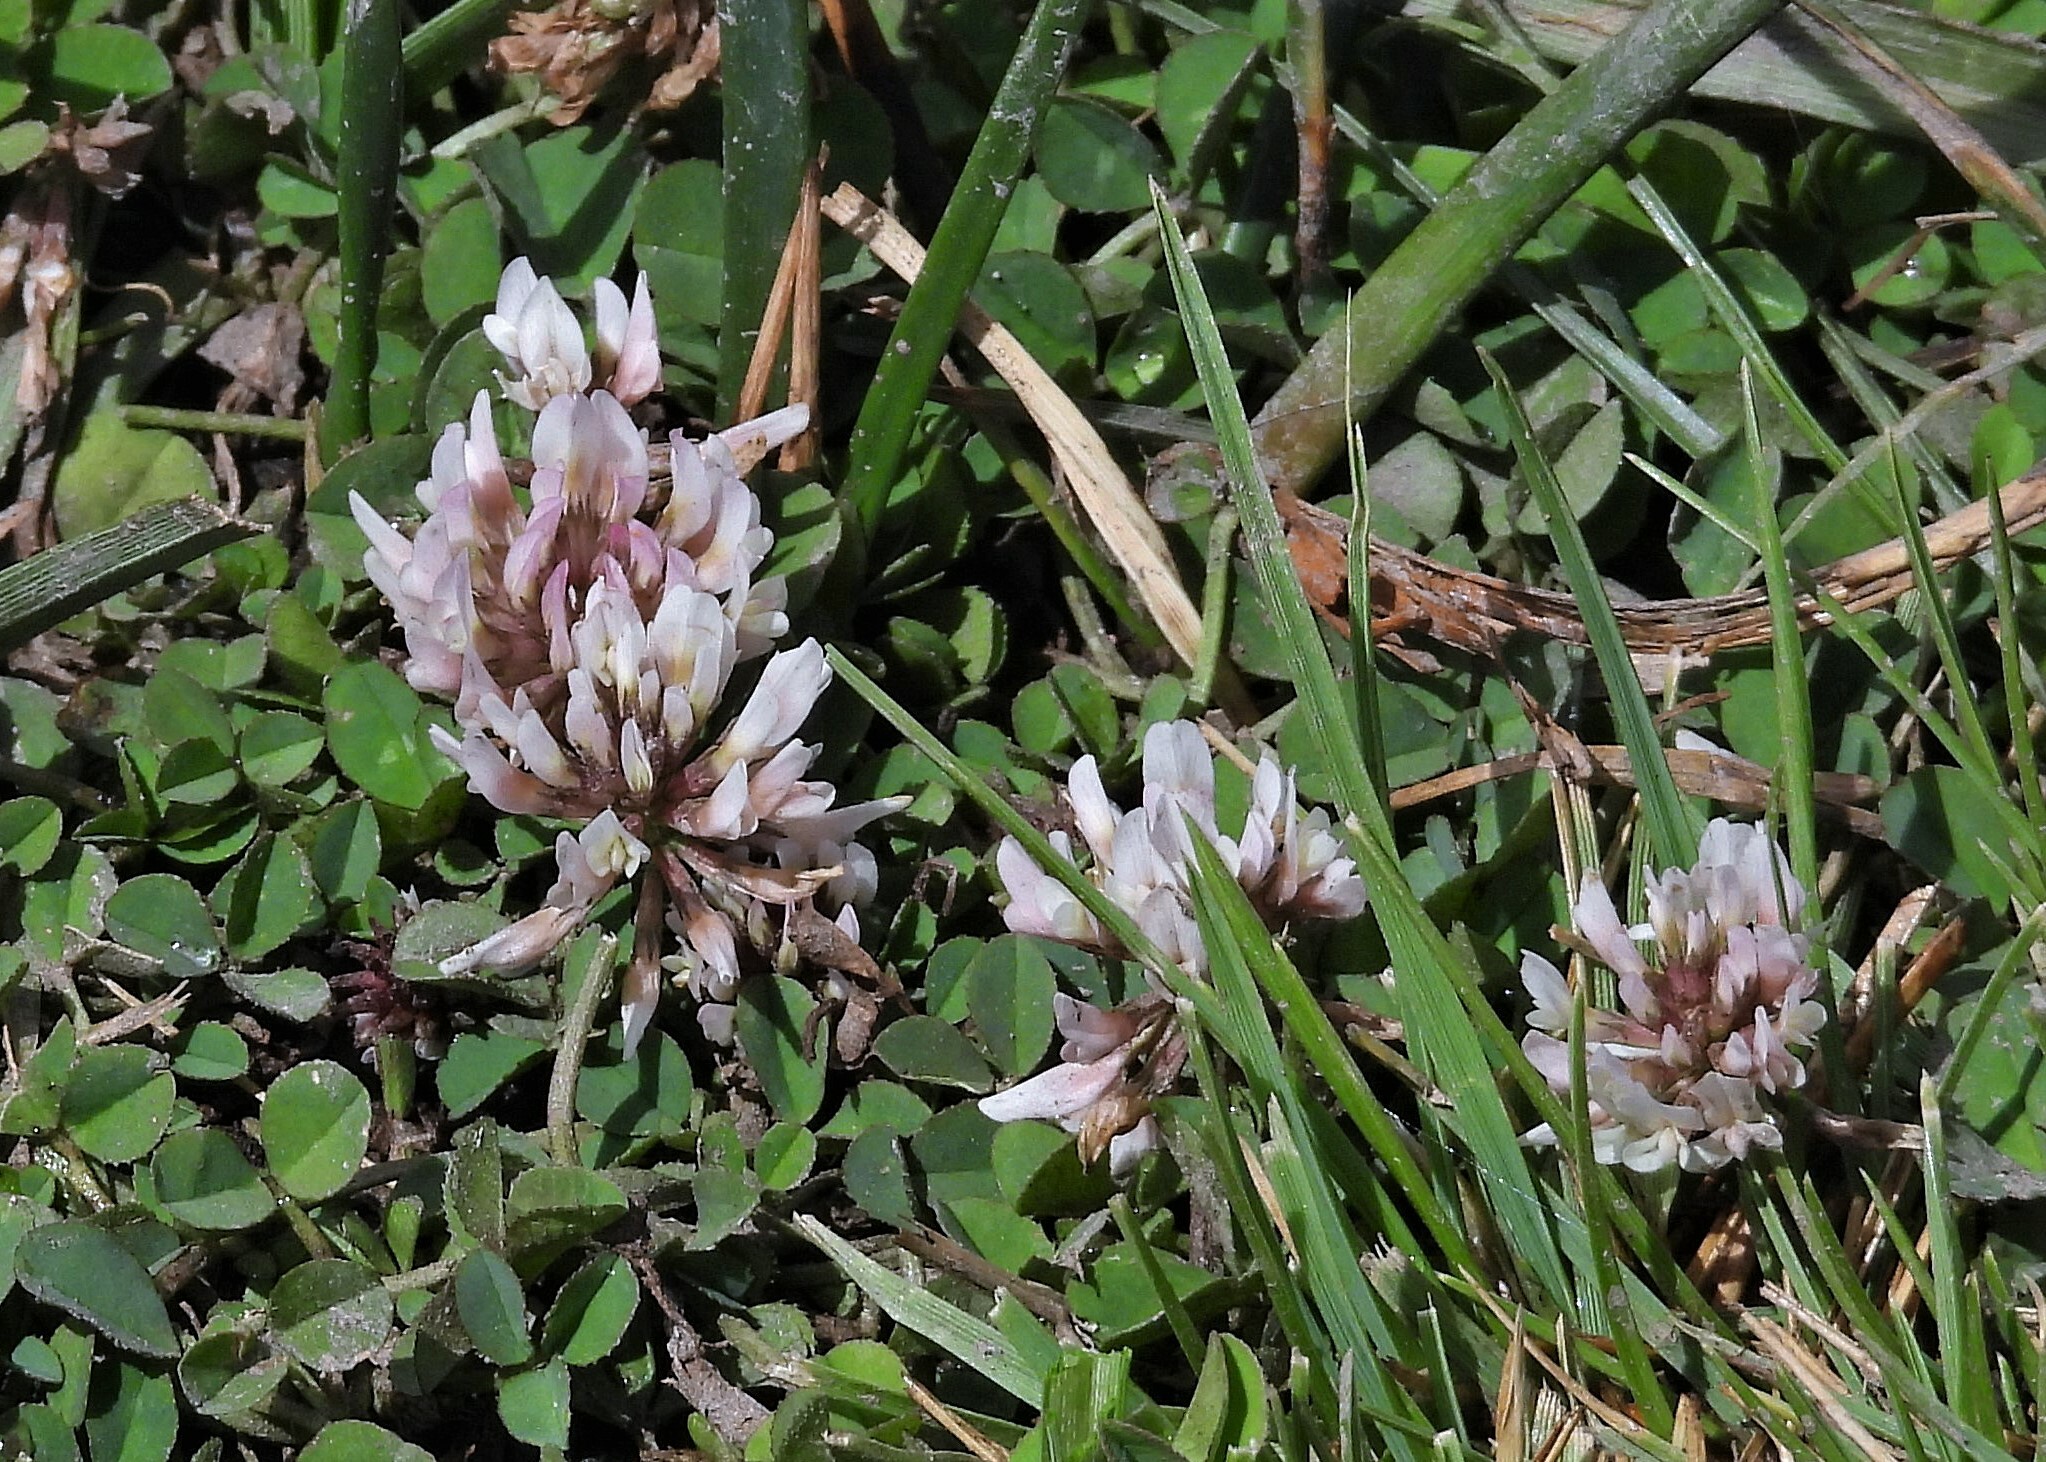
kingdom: Plantae
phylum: Tracheophyta
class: Magnoliopsida
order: Fabales
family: Fabaceae
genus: Trifolium
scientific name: Trifolium repens
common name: White clover
